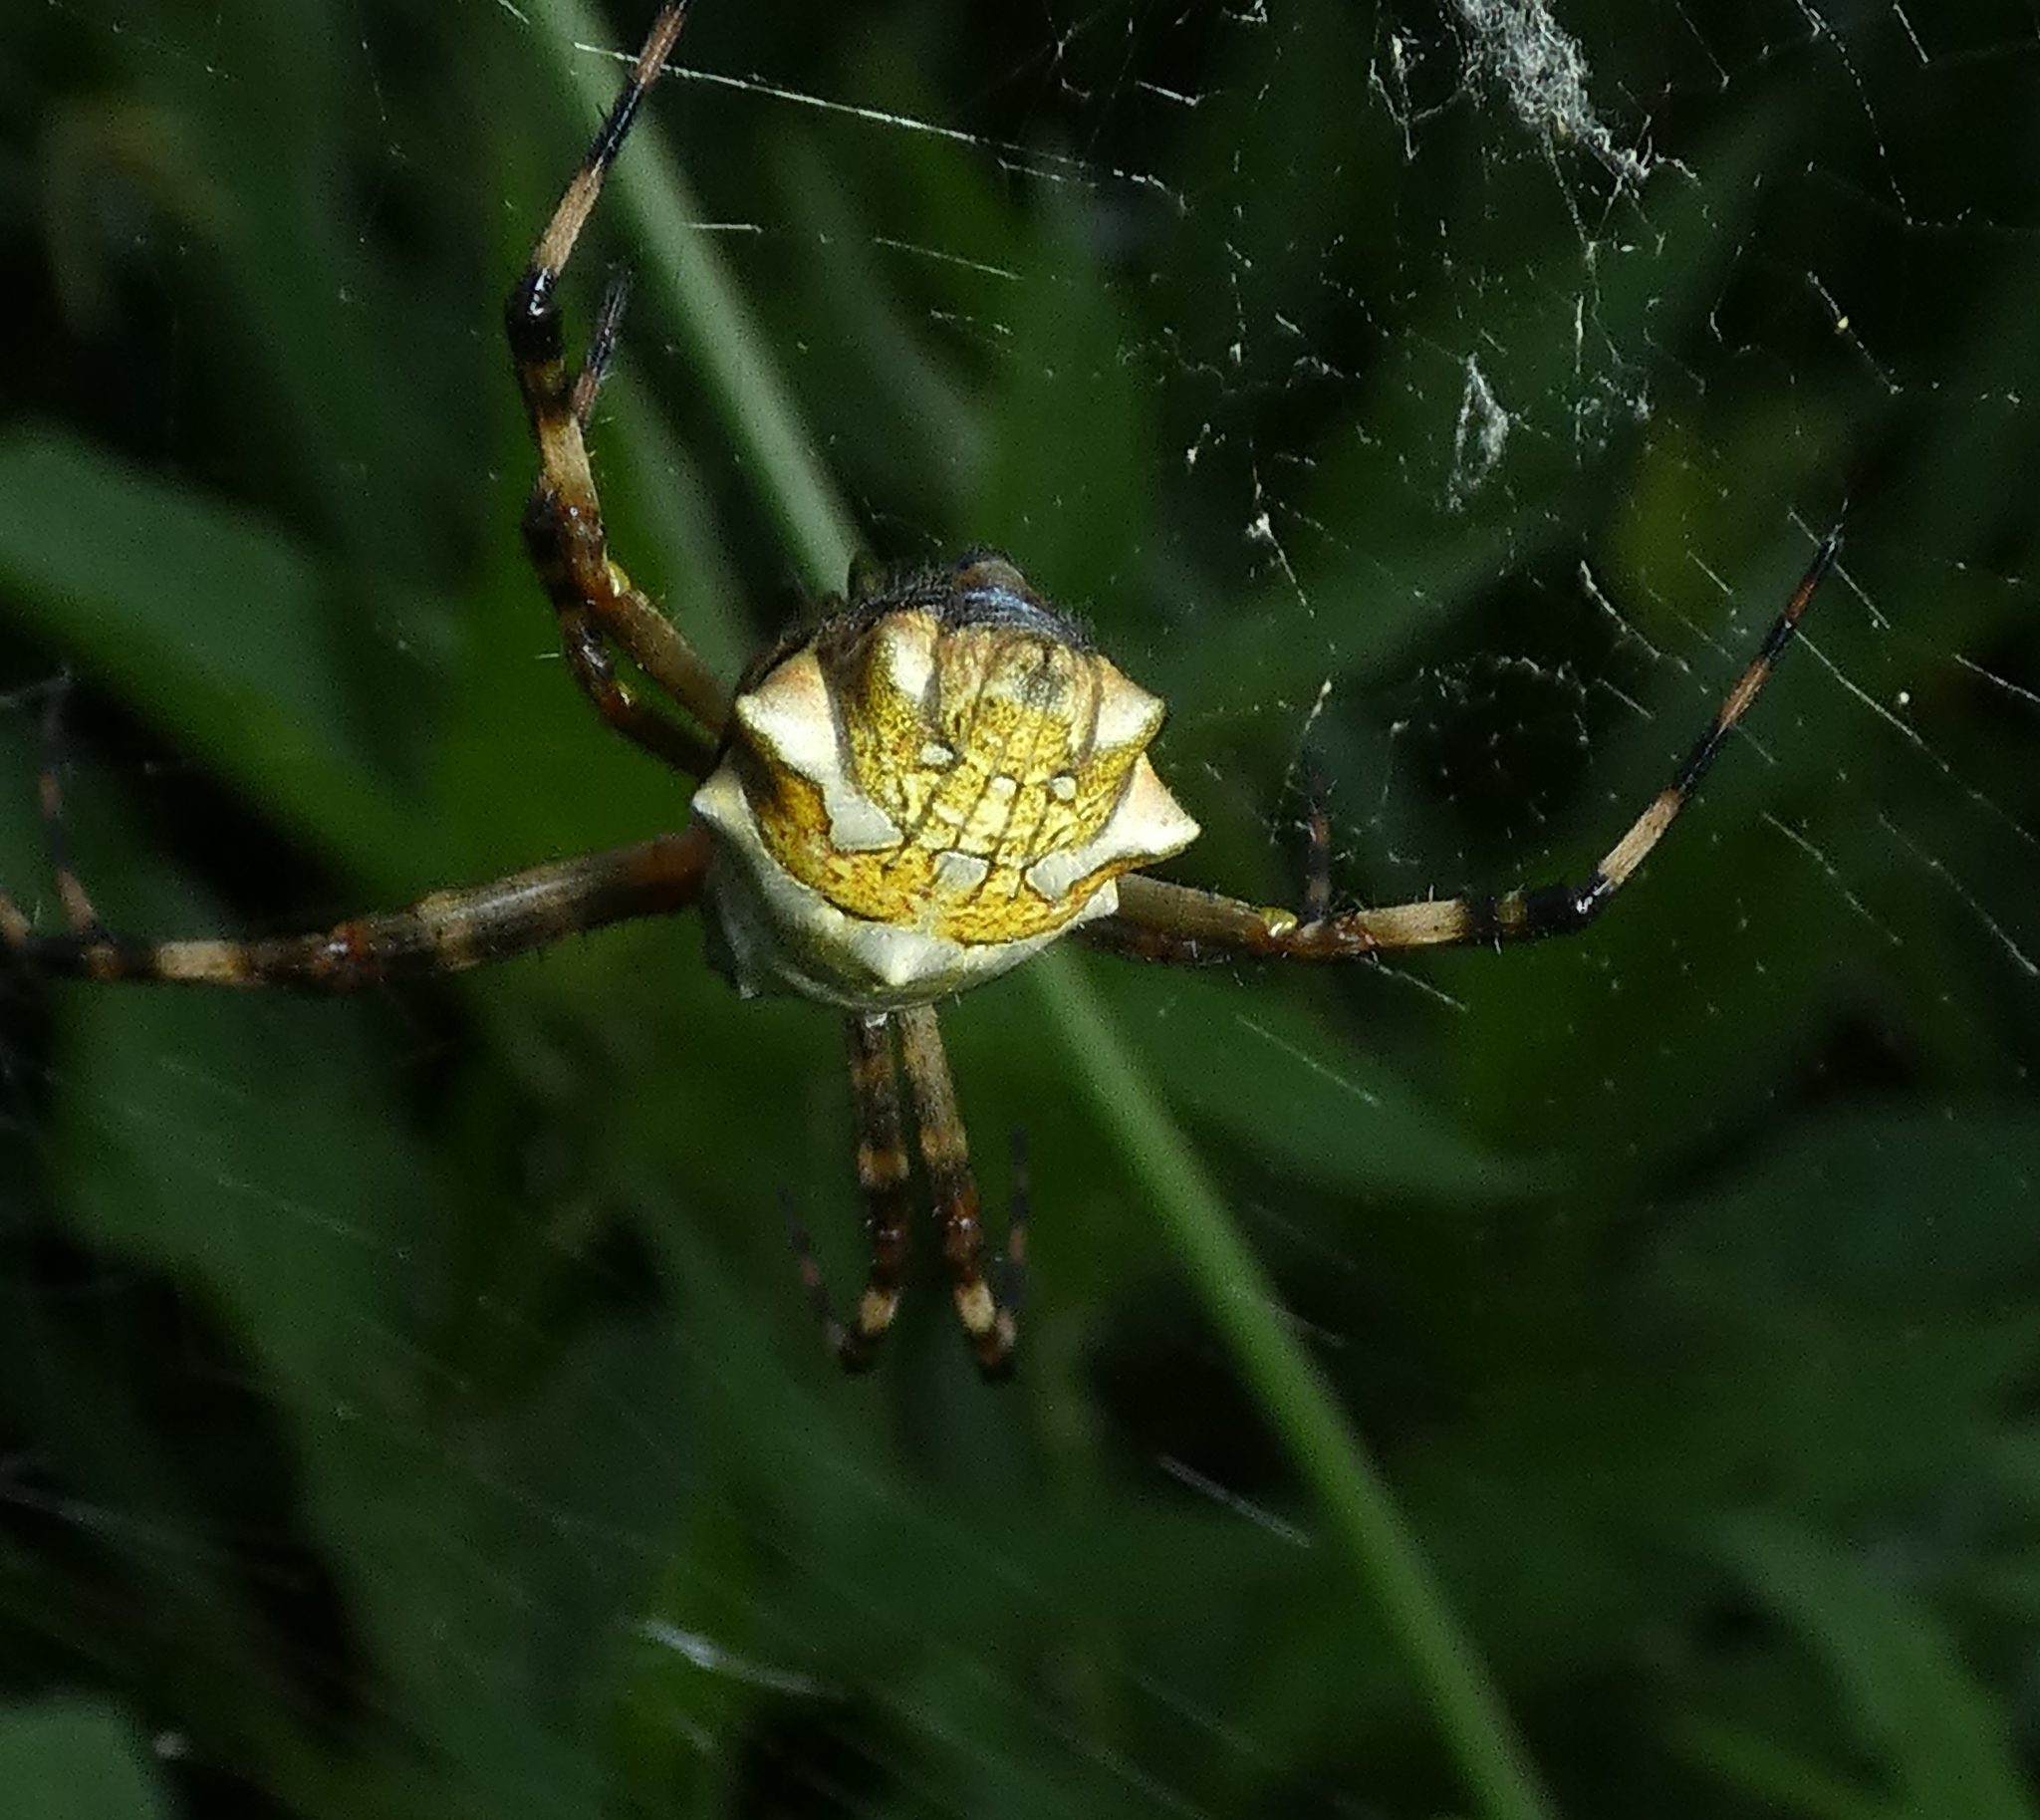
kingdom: Animalia
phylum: Arthropoda
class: Arachnida
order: Araneae
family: Araneidae
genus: Argiope
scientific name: Argiope argentata
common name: Orb weavers
